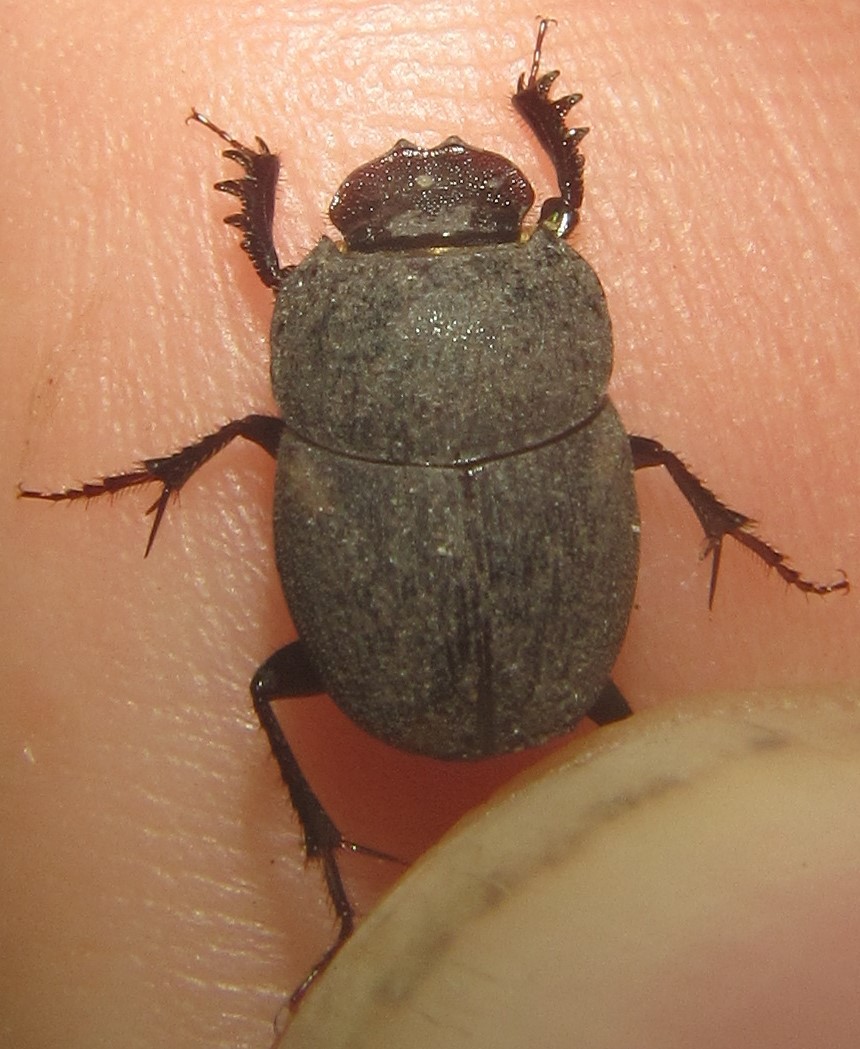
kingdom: Animalia
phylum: Arthropoda
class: Insecta
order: Coleoptera
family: Scarabaeidae
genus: Hamonthophagus
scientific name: Hamonthophagus fallax
